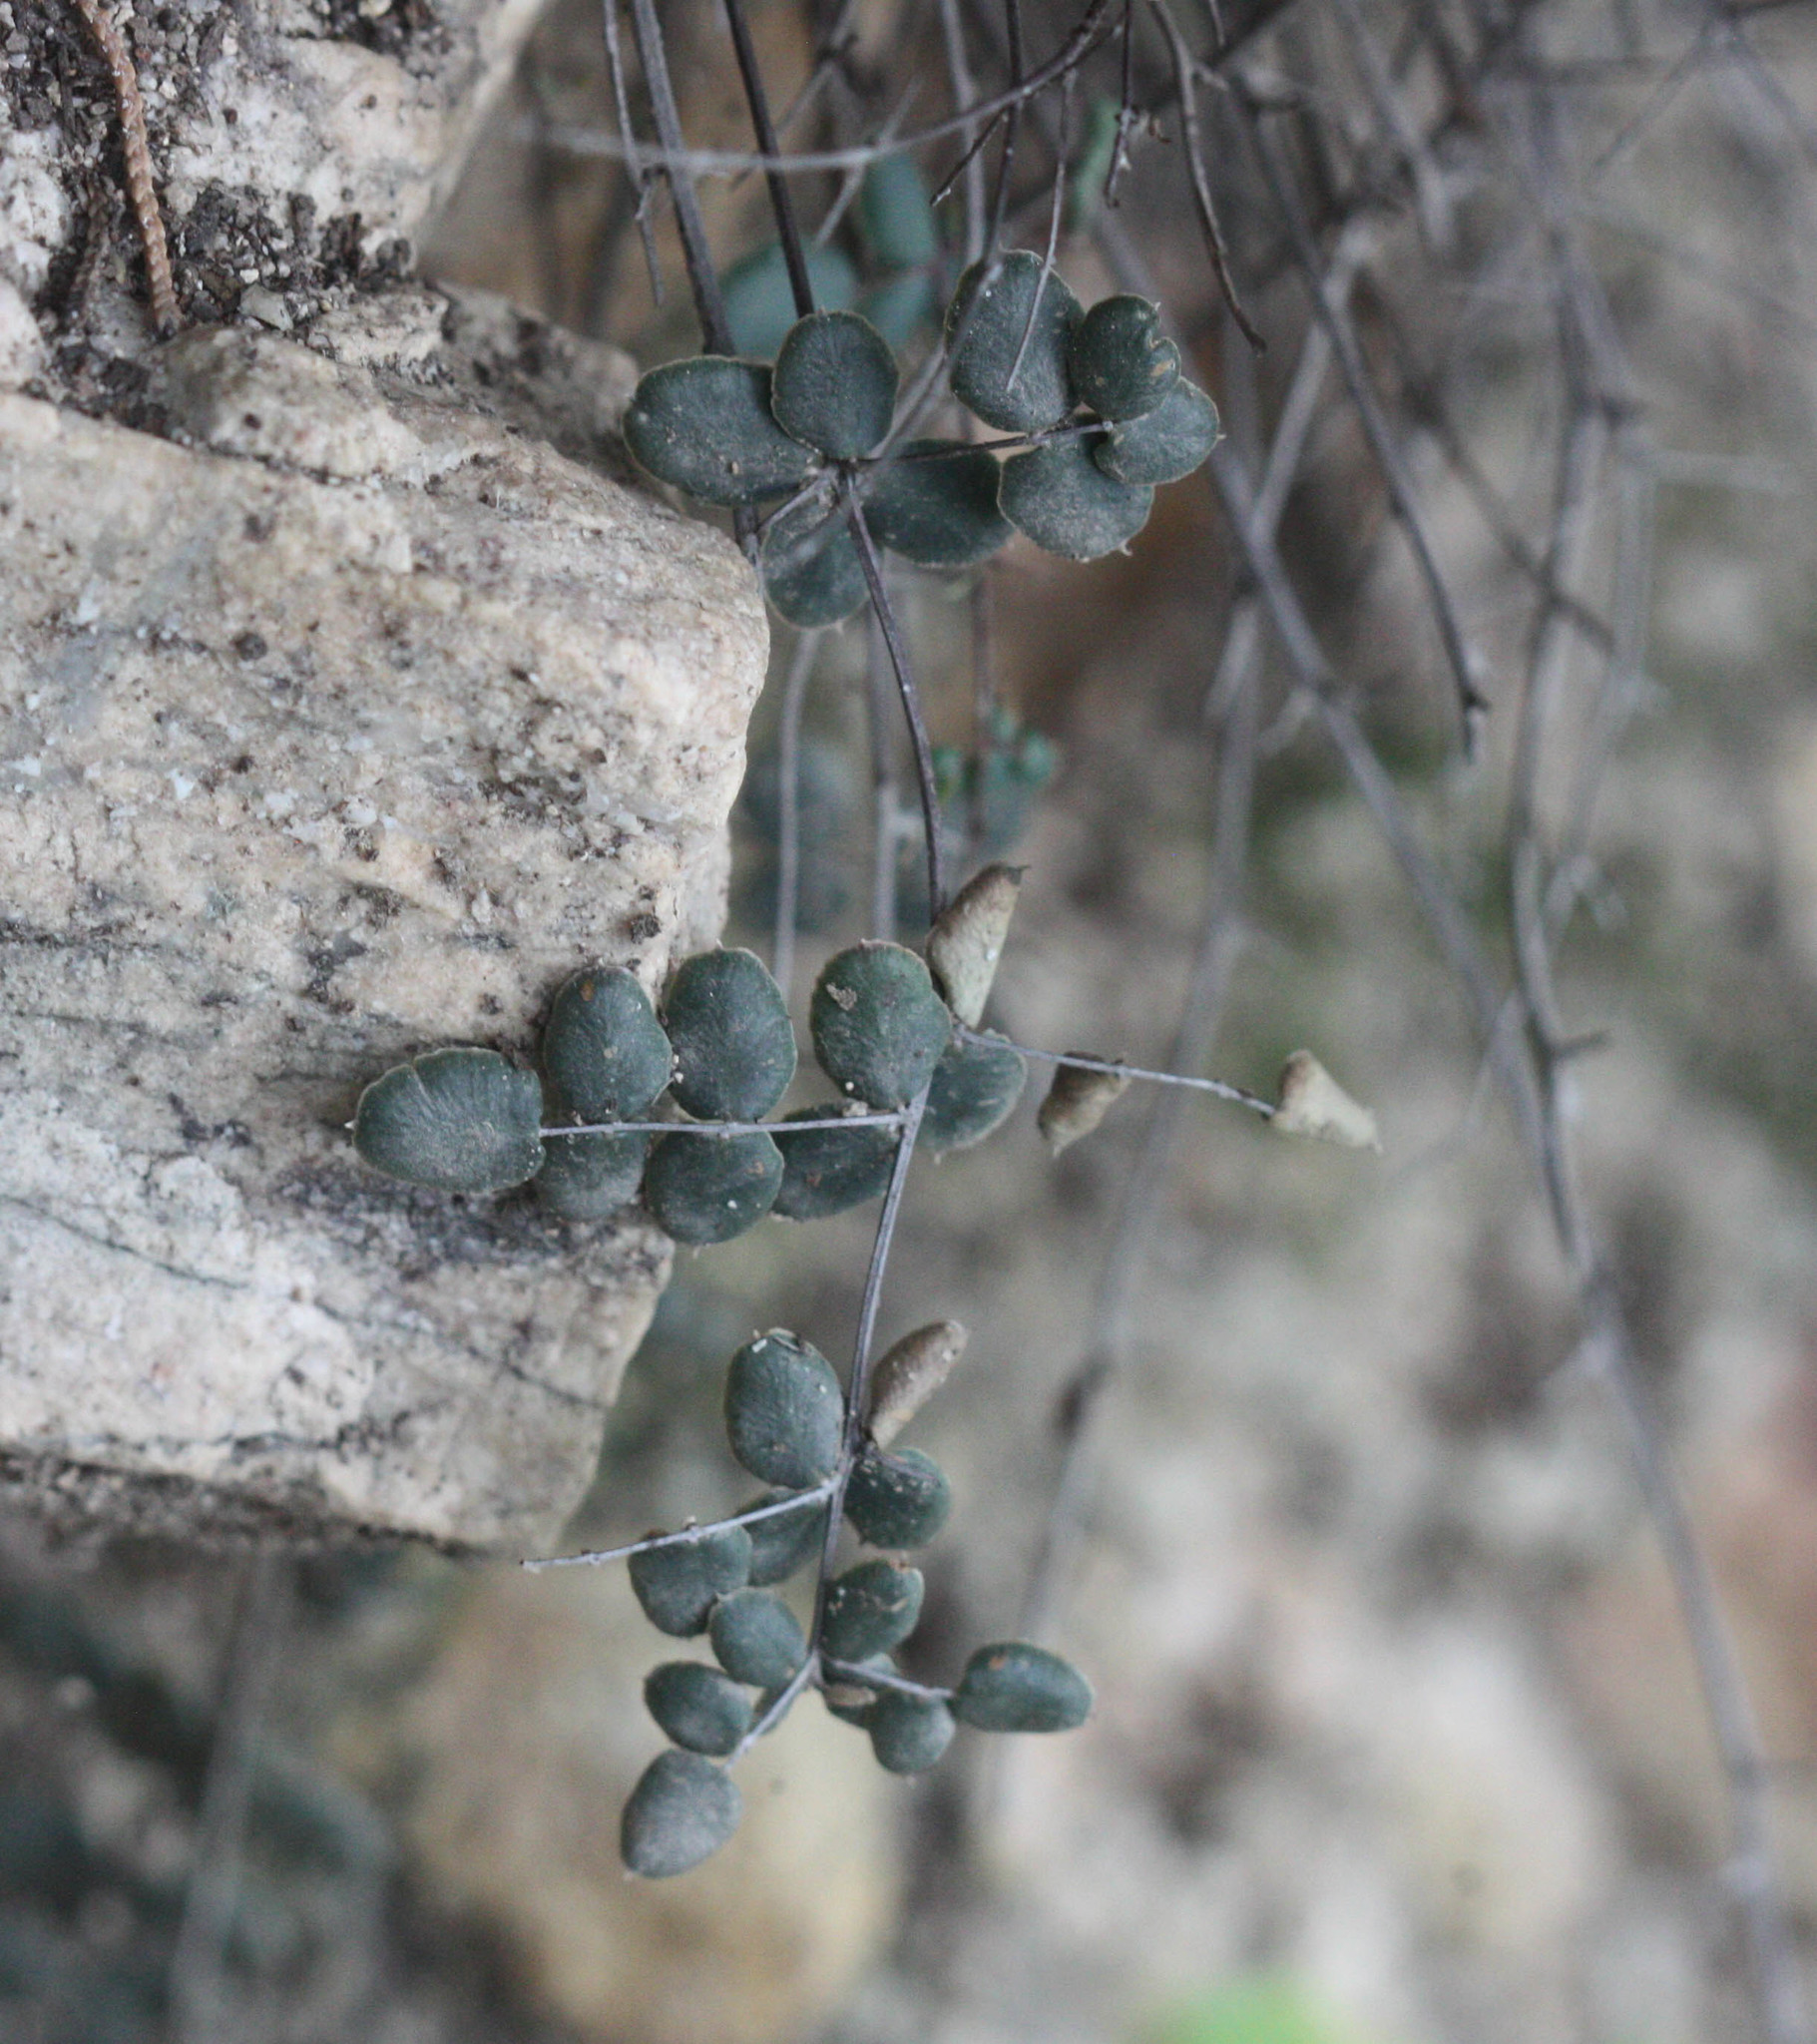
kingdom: Plantae
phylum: Tracheophyta
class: Polypodiopsida
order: Polypodiales
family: Pteridaceae
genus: Pellaea
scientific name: Pellaea truncata
